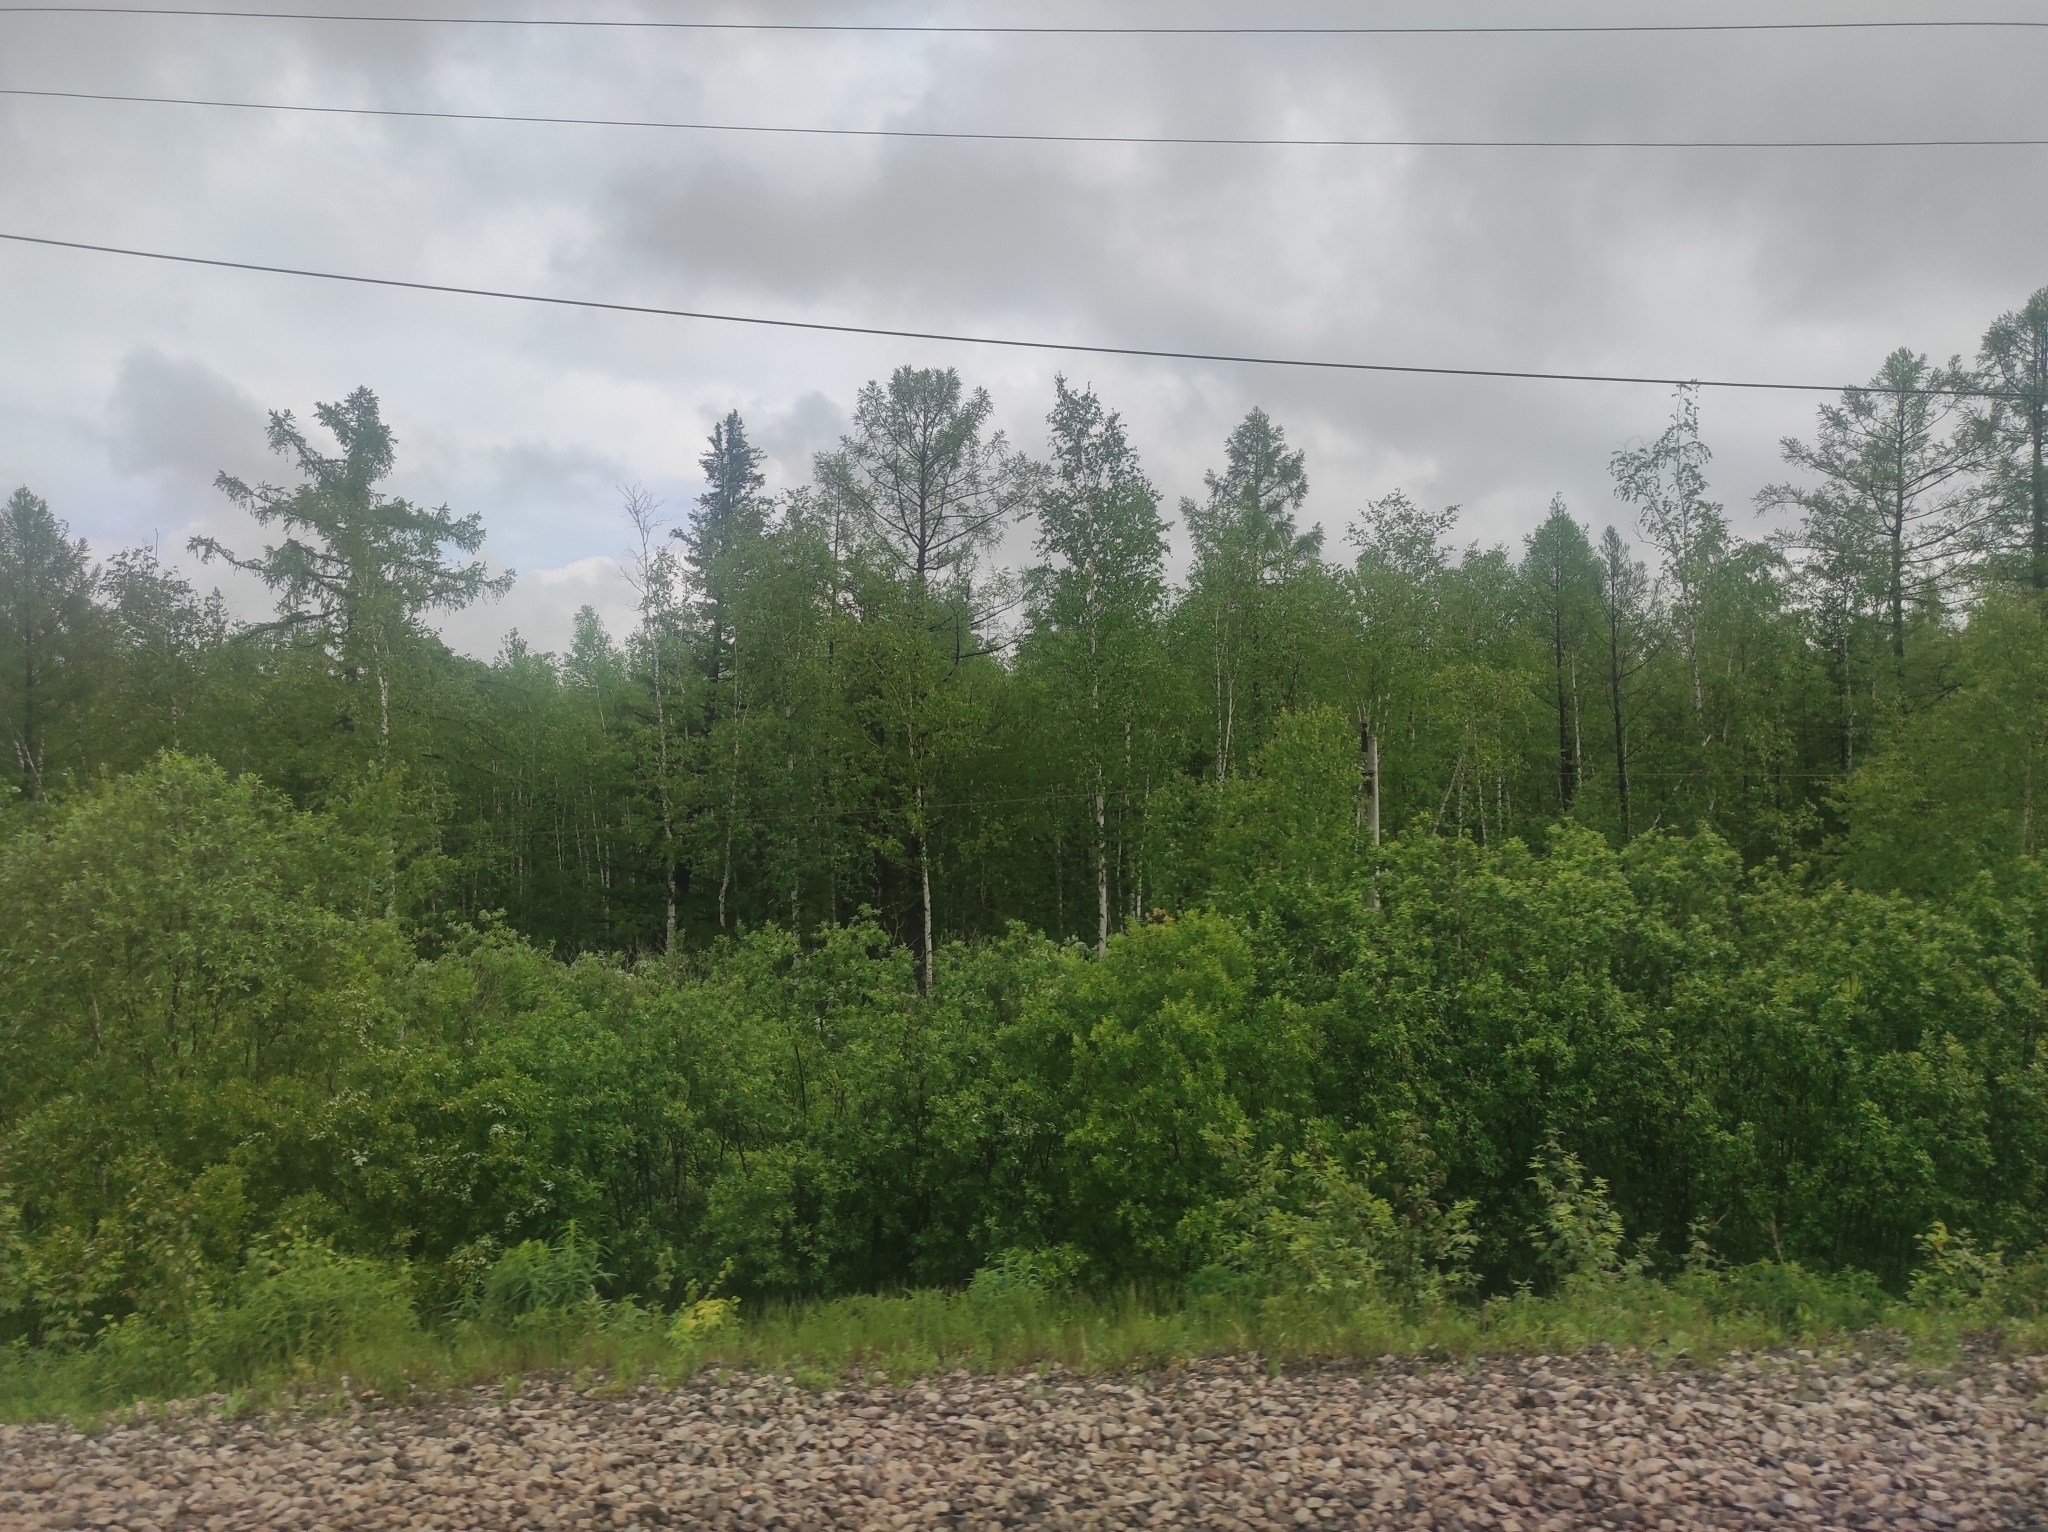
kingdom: Plantae
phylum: Tracheophyta
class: Pinopsida
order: Pinales
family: Pinaceae
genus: Picea
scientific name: Picea obovata
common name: Siberian spruce
